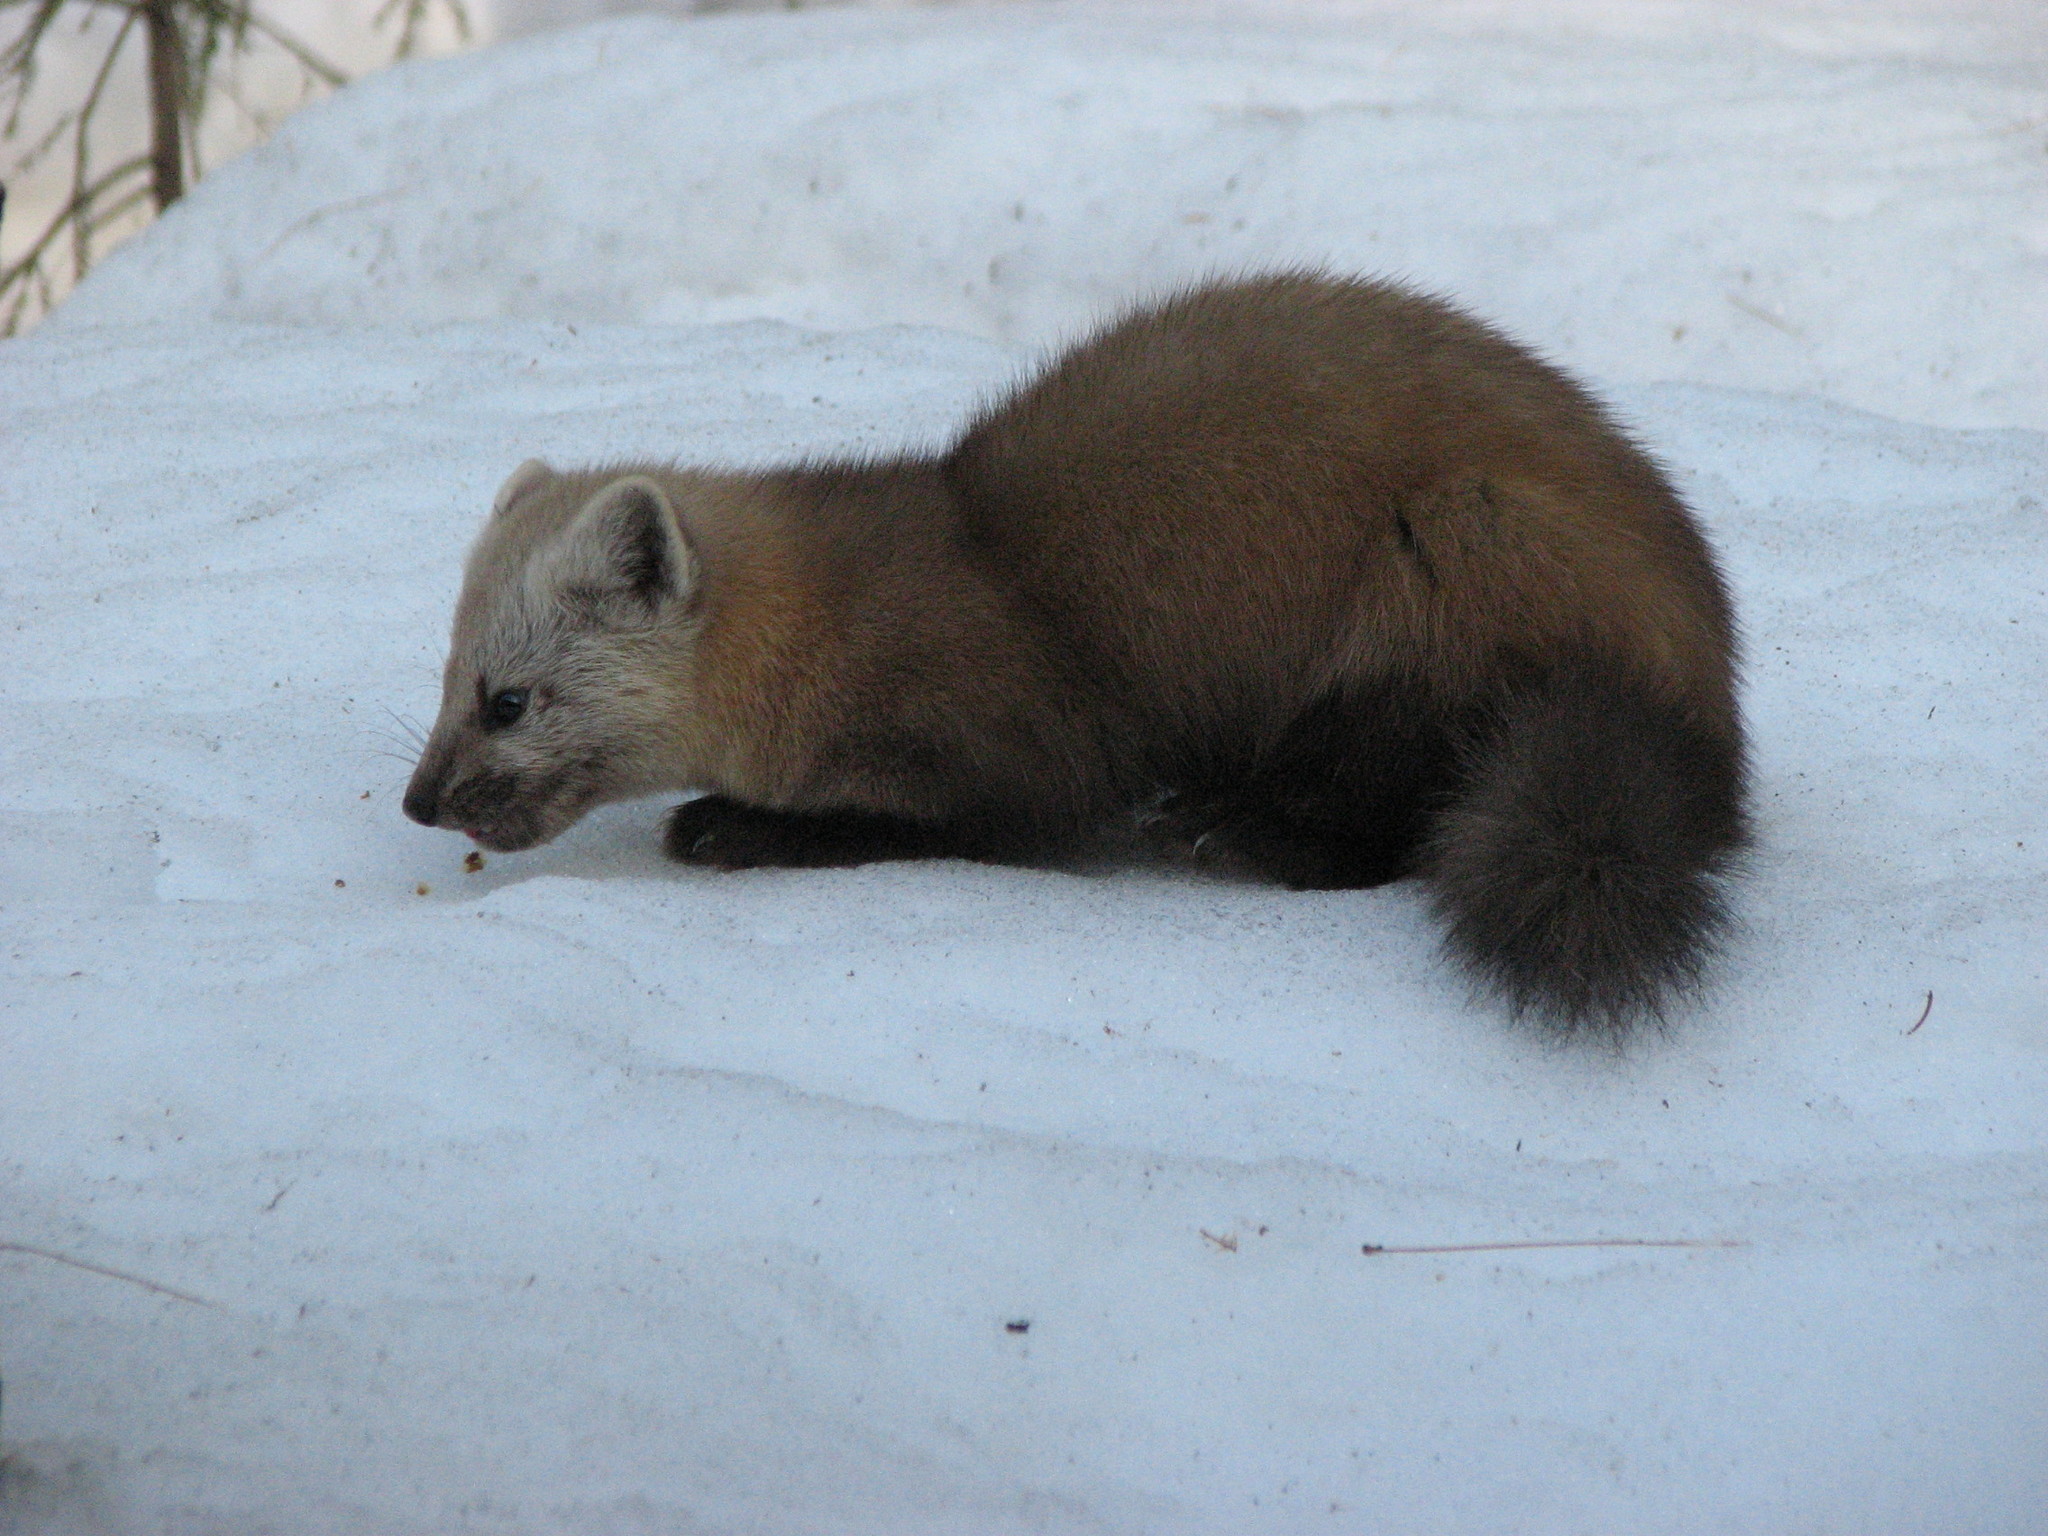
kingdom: Animalia
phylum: Chordata
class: Mammalia
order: Carnivora
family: Mustelidae
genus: Martes
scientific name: Martes zibellina
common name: Sable
